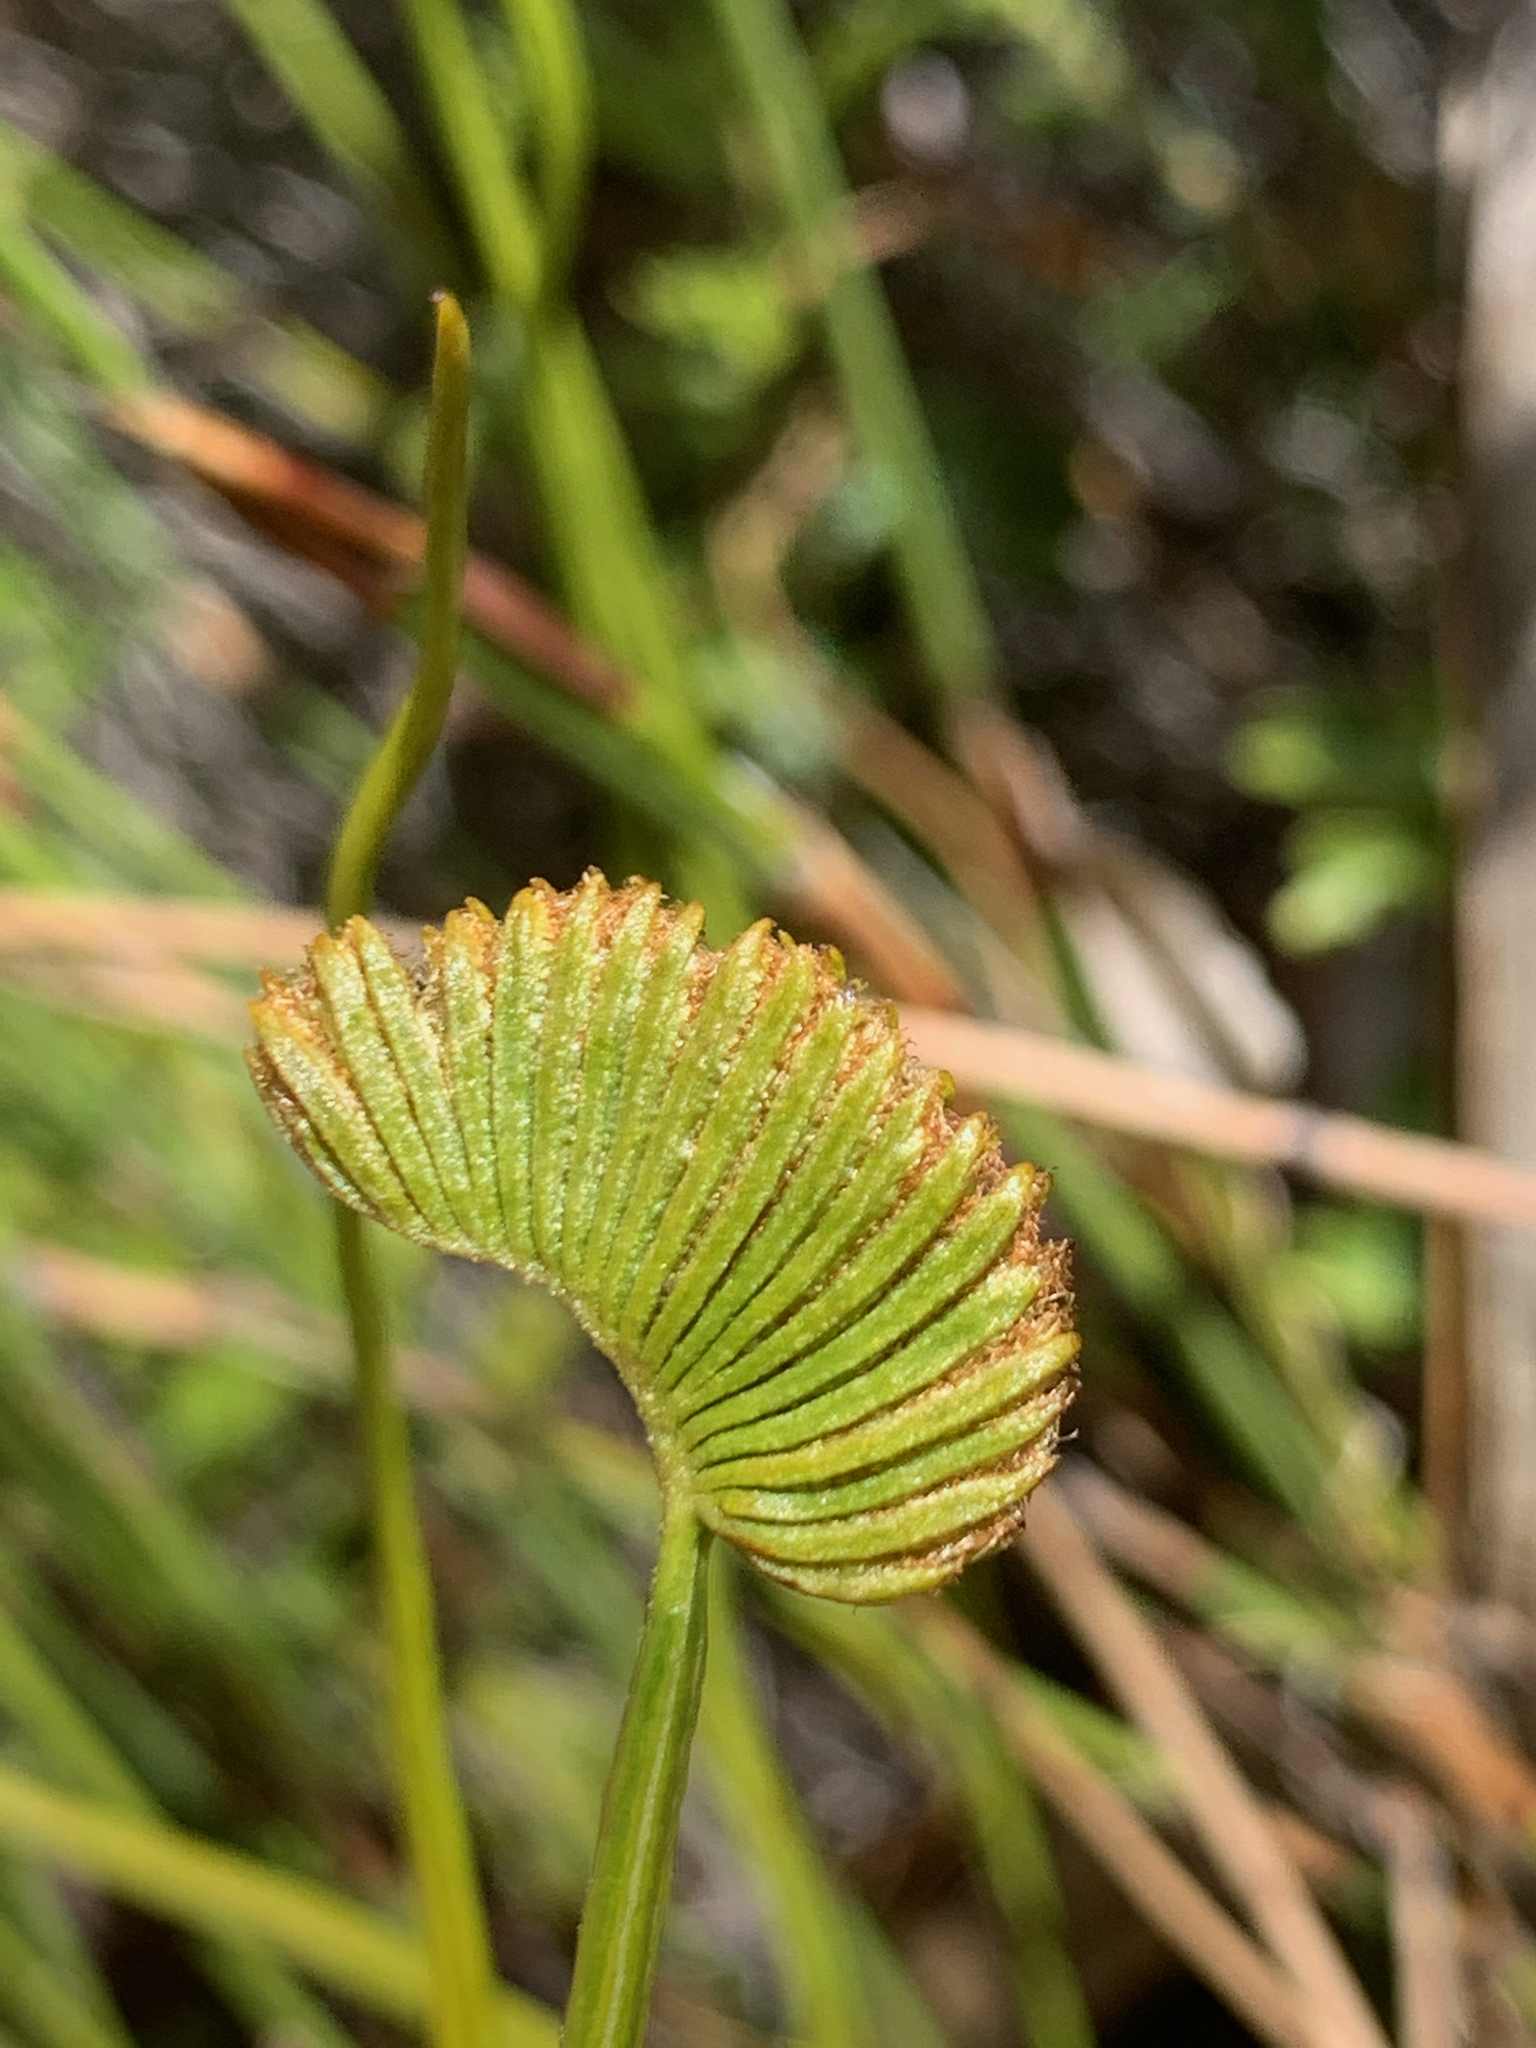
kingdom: Plantae
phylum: Tracheophyta
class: Polypodiopsida
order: Schizaeales
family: Schizaeaceae
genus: Schizaea
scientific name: Schizaea pectinata
